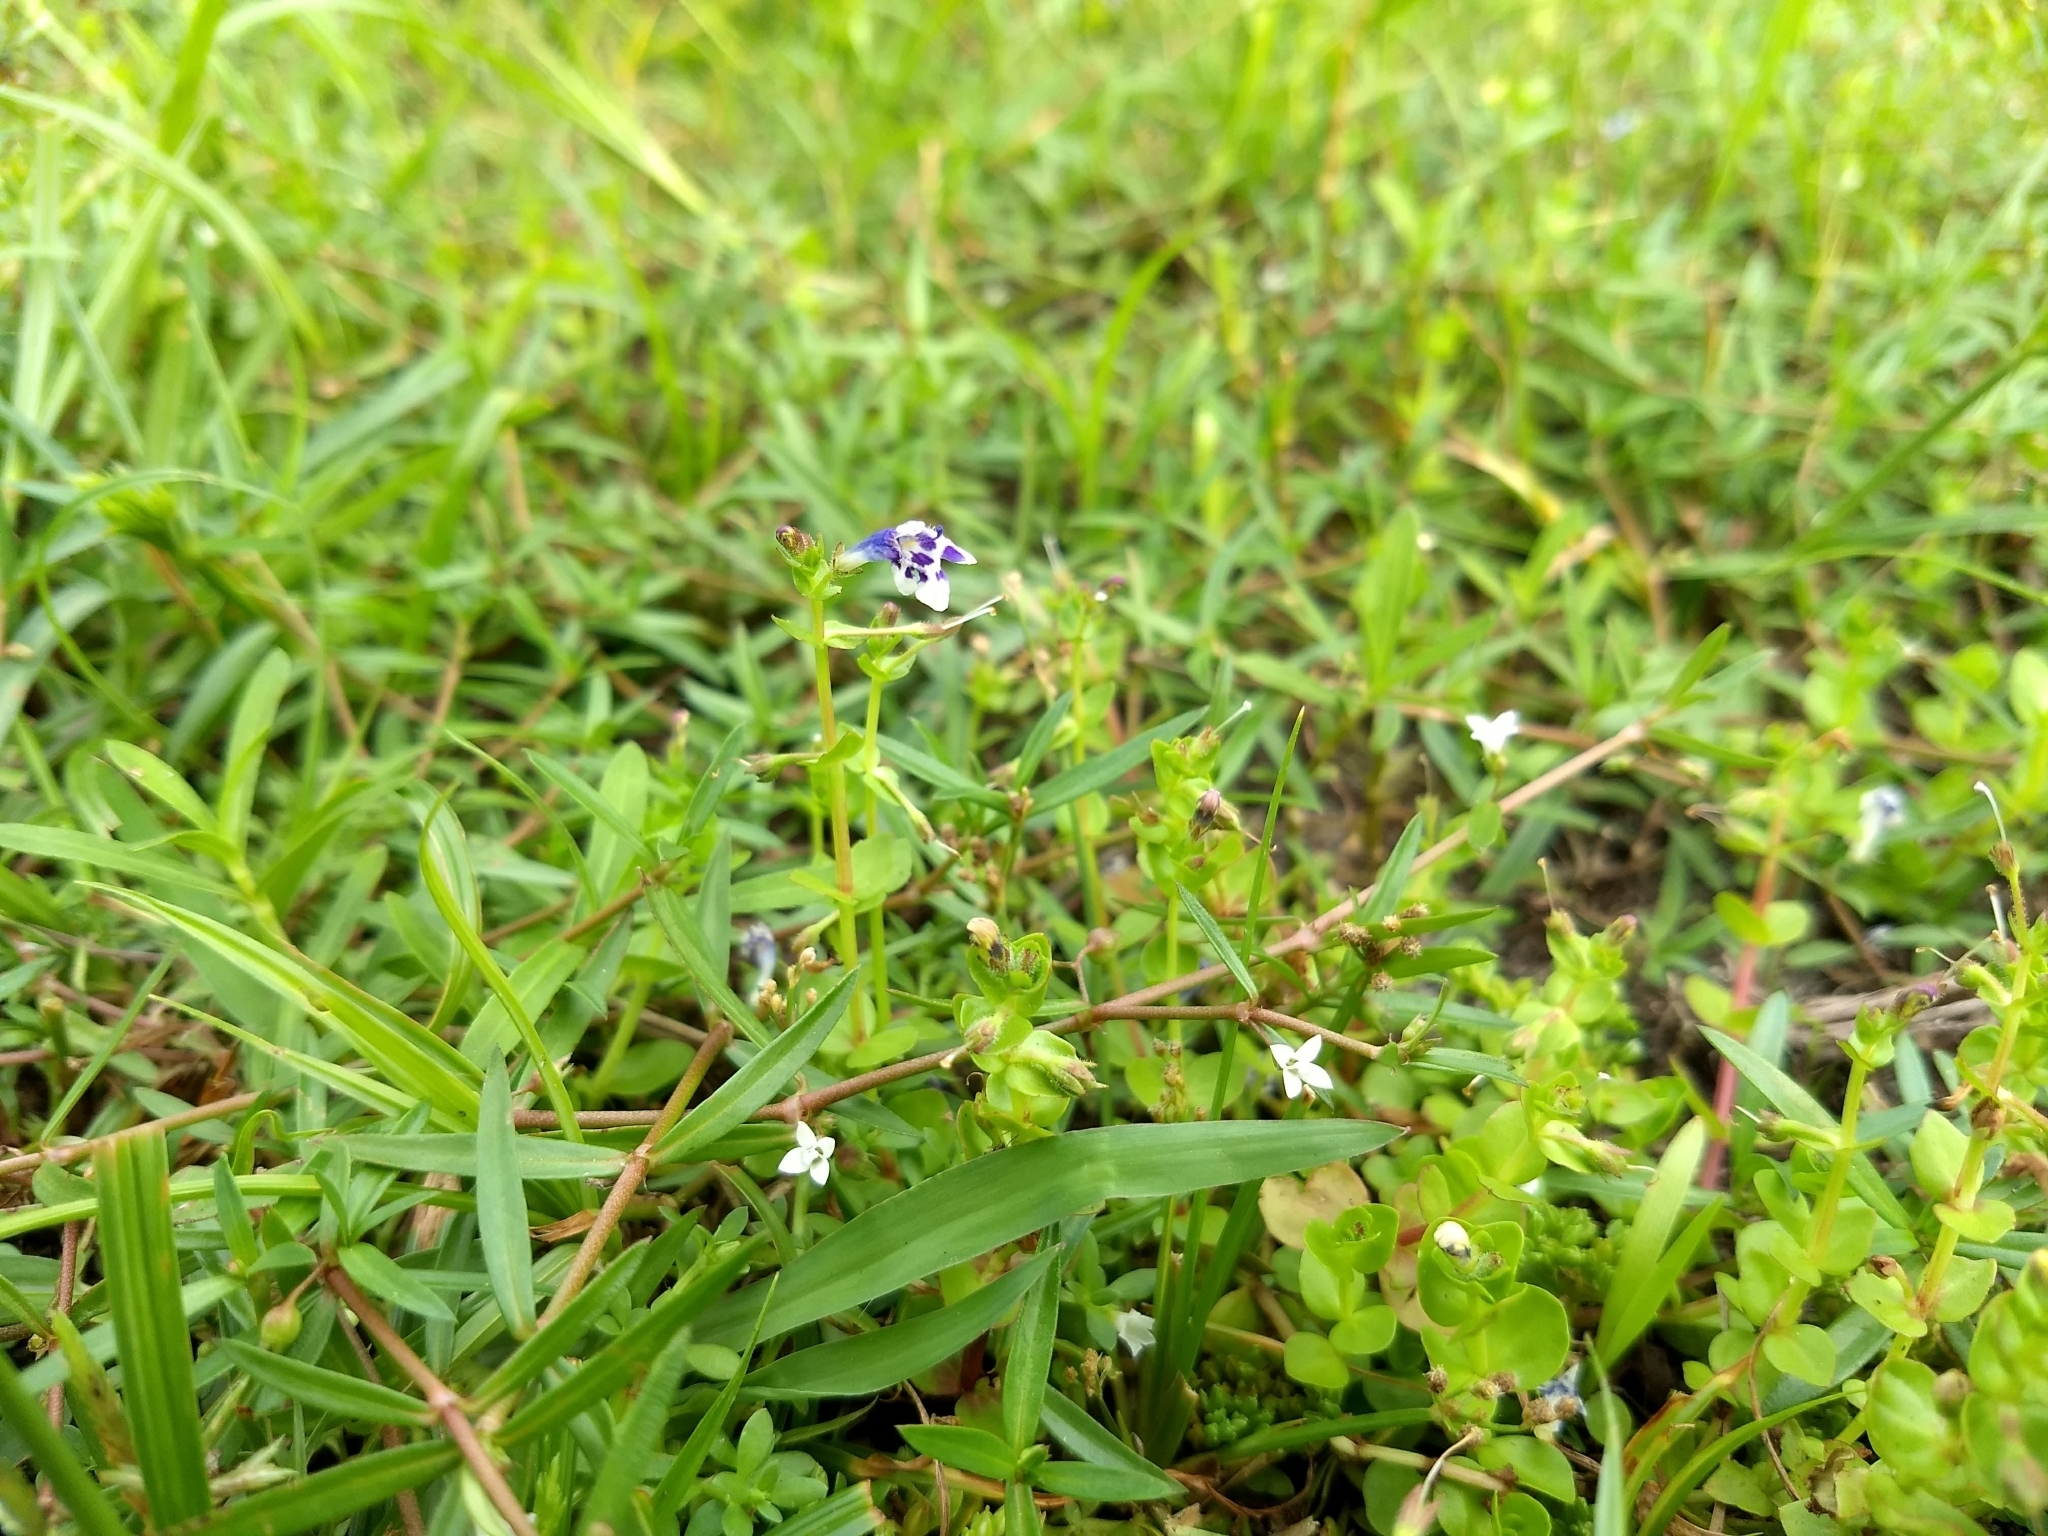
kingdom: Plantae
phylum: Tracheophyta
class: Magnoliopsida
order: Lamiales
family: Linderniaceae
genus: Lindernia
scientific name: Lindernia rotundifolia
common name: Baby’s tears
